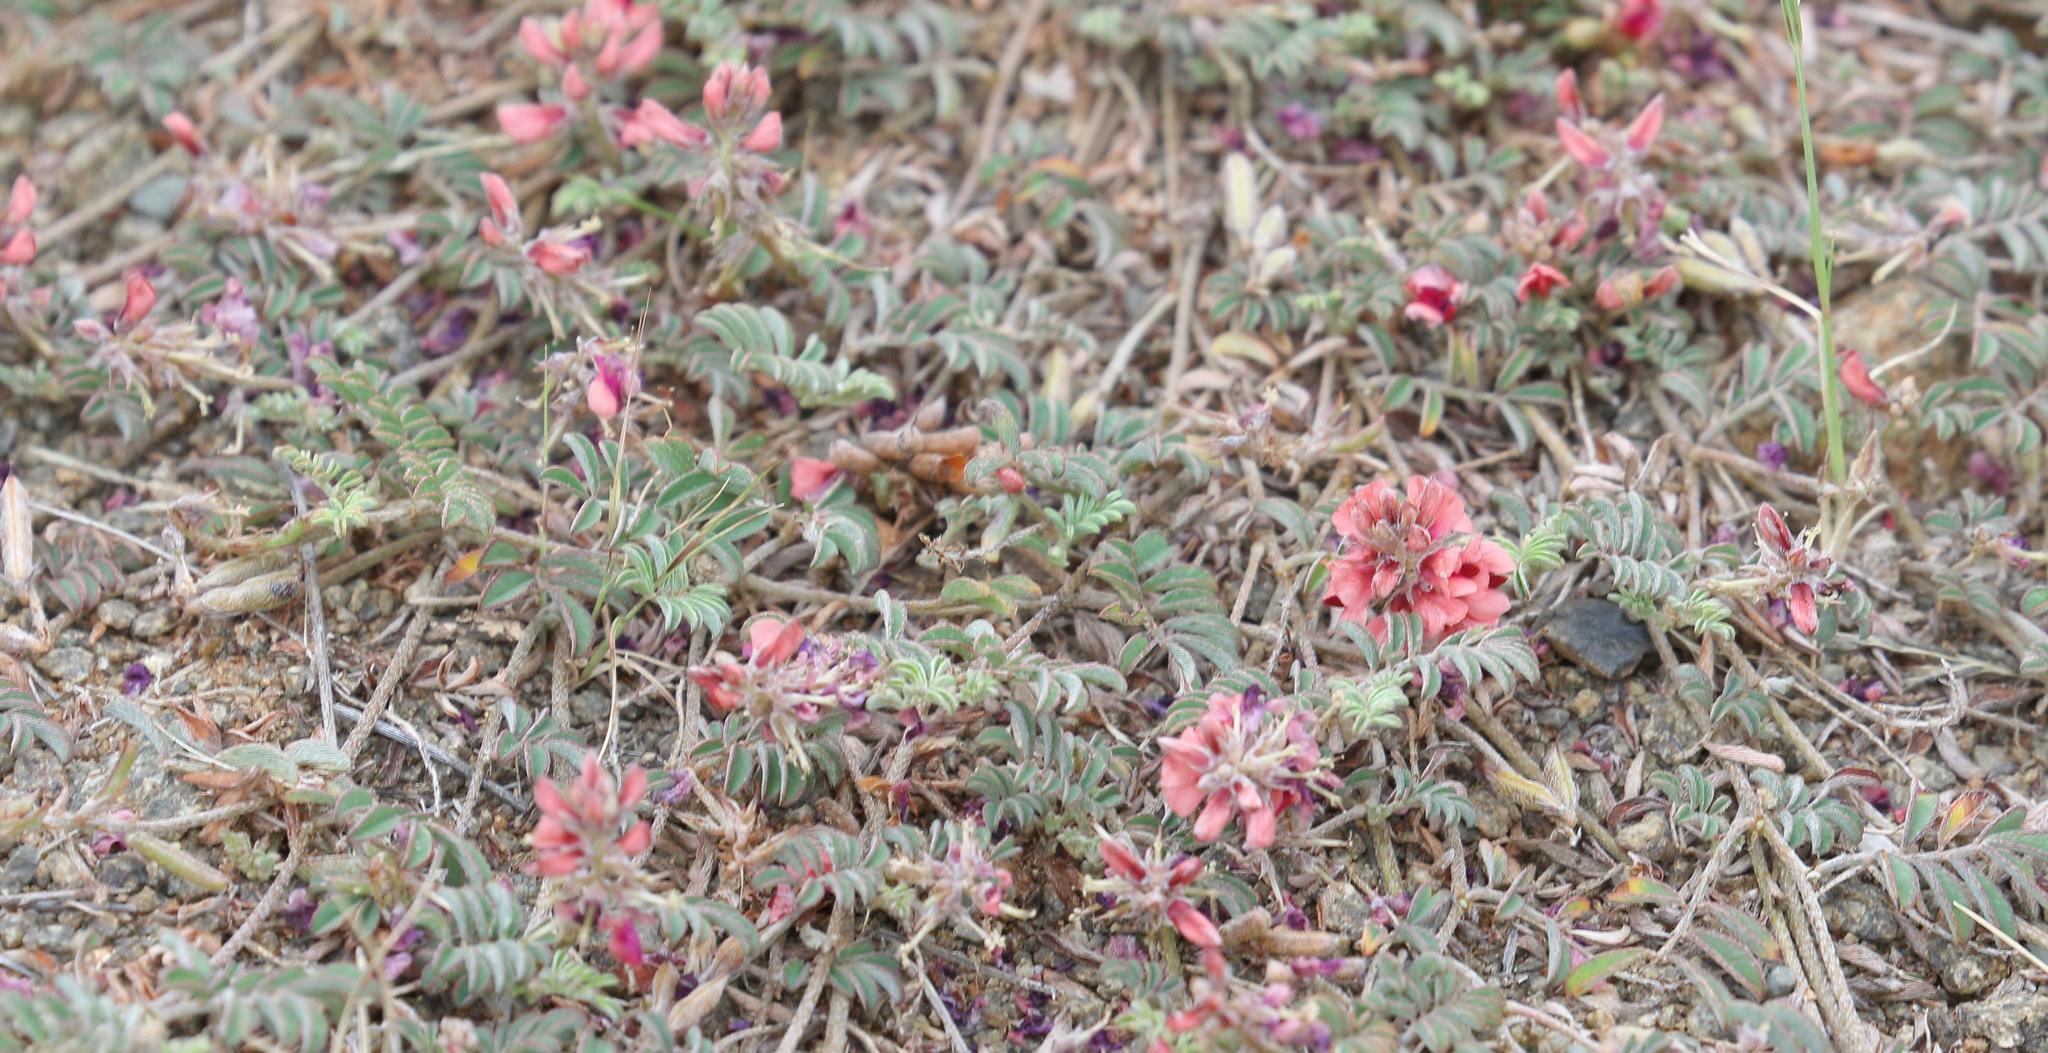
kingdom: Plantae
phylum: Tracheophyta
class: Magnoliopsida
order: Fabales
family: Fabaceae
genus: Indigofera
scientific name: Indigofera alternans
